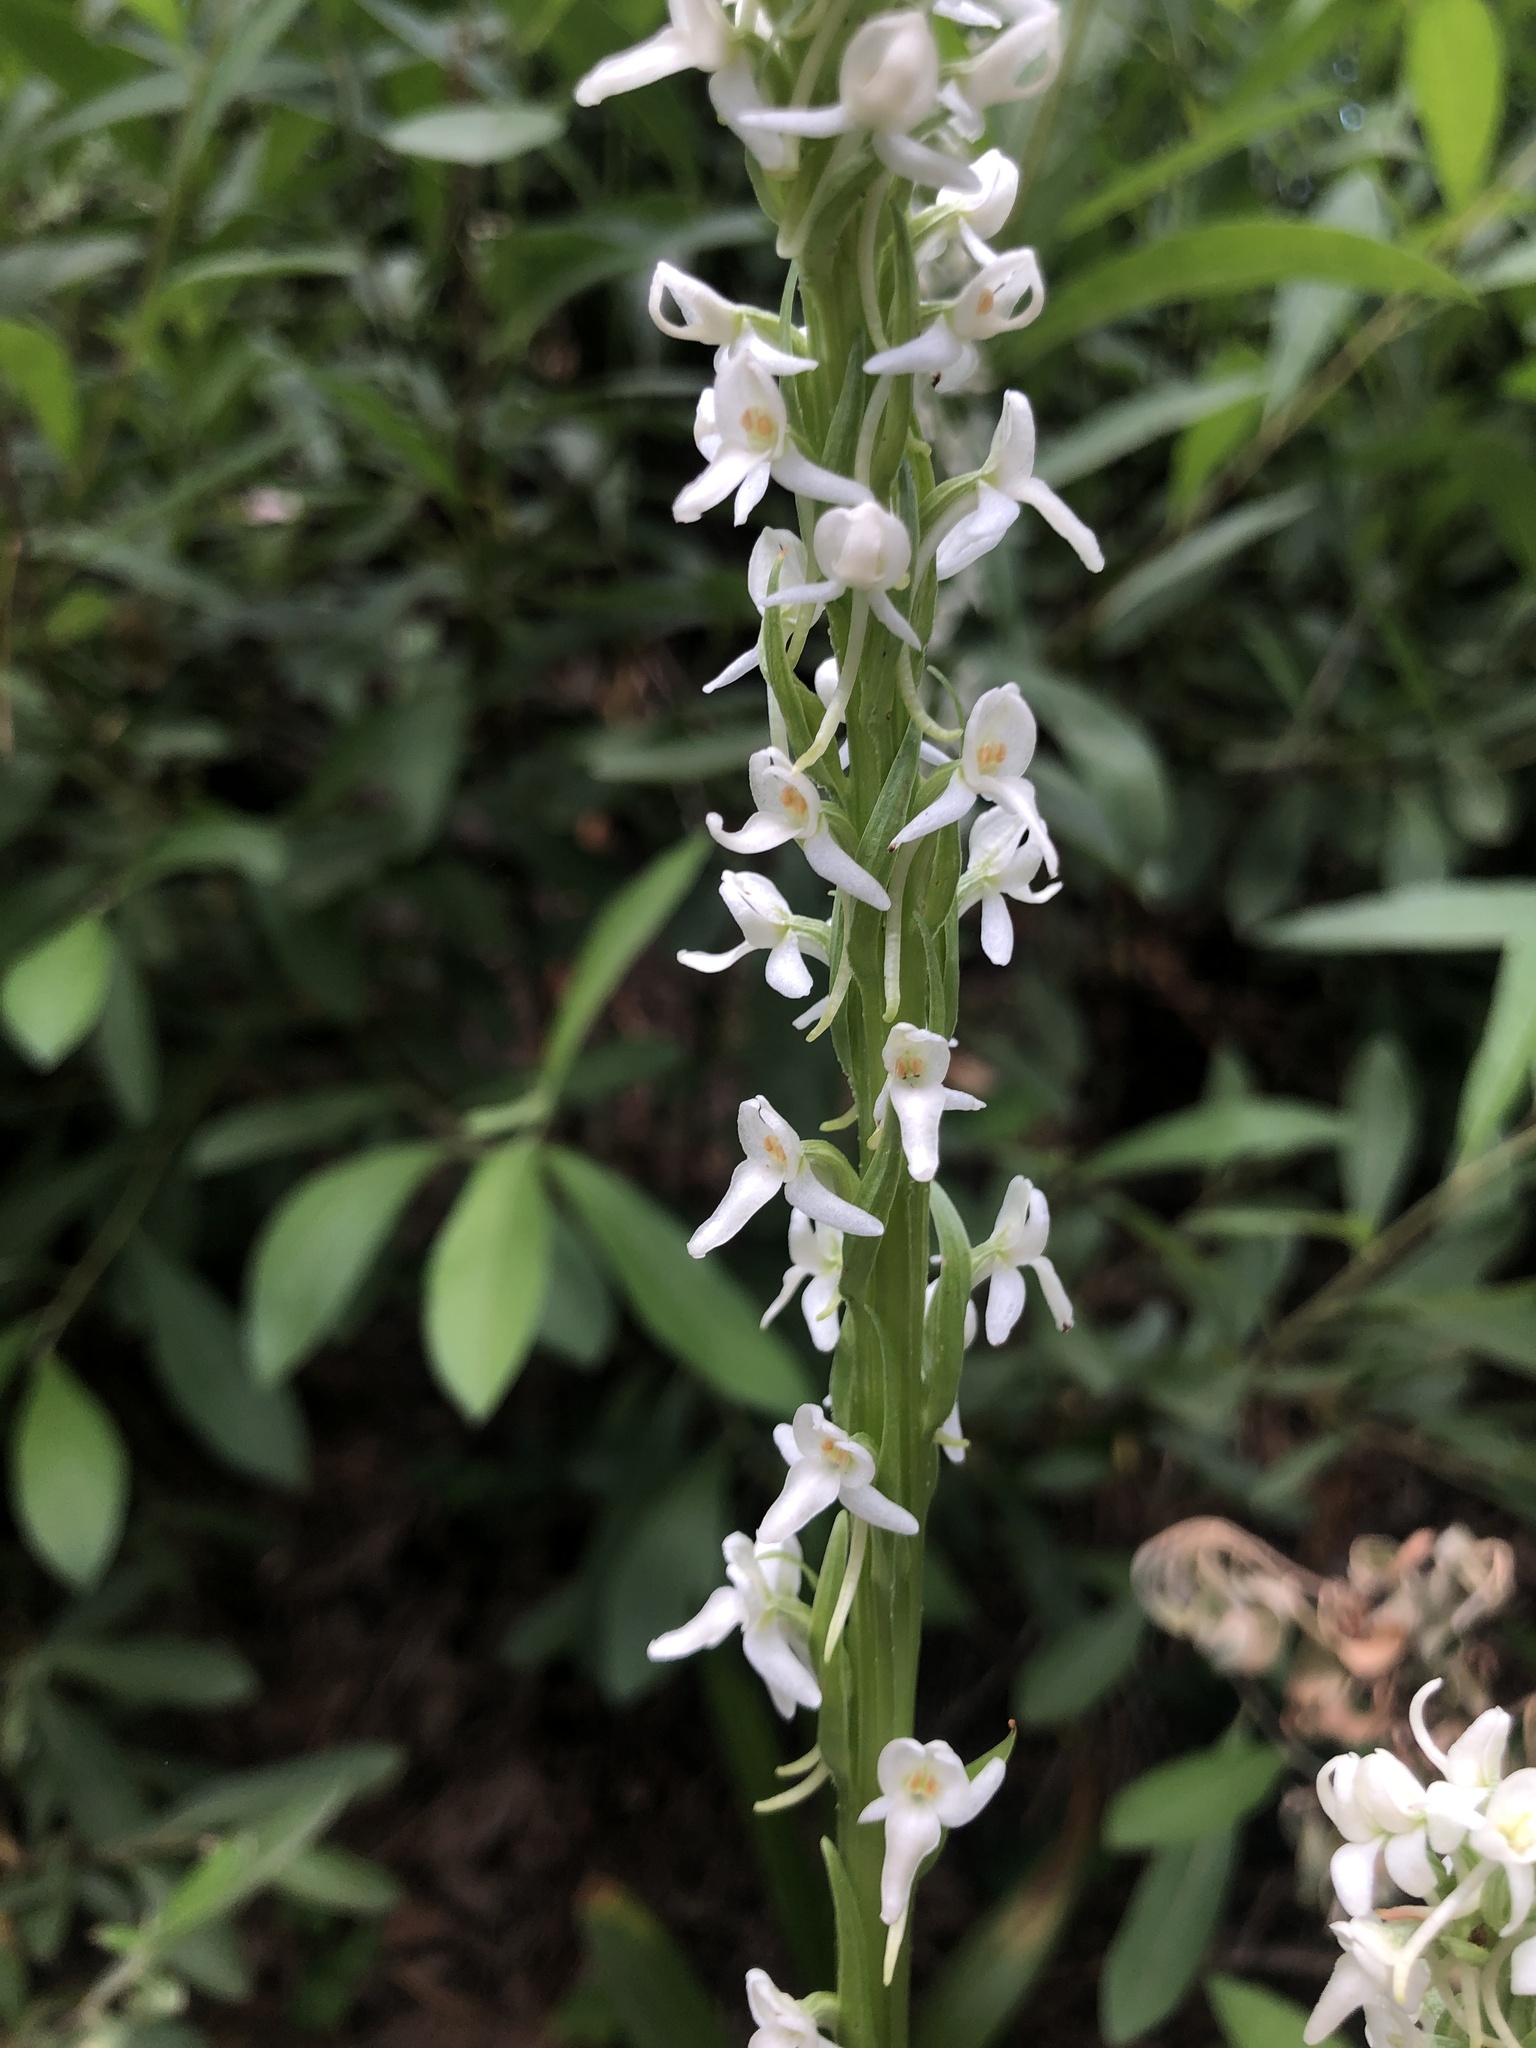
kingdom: Plantae
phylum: Tracheophyta
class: Liliopsida
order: Asparagales
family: Orchidaceae
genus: Platanthera
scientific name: Platanthera dilatata
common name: Bog candles
